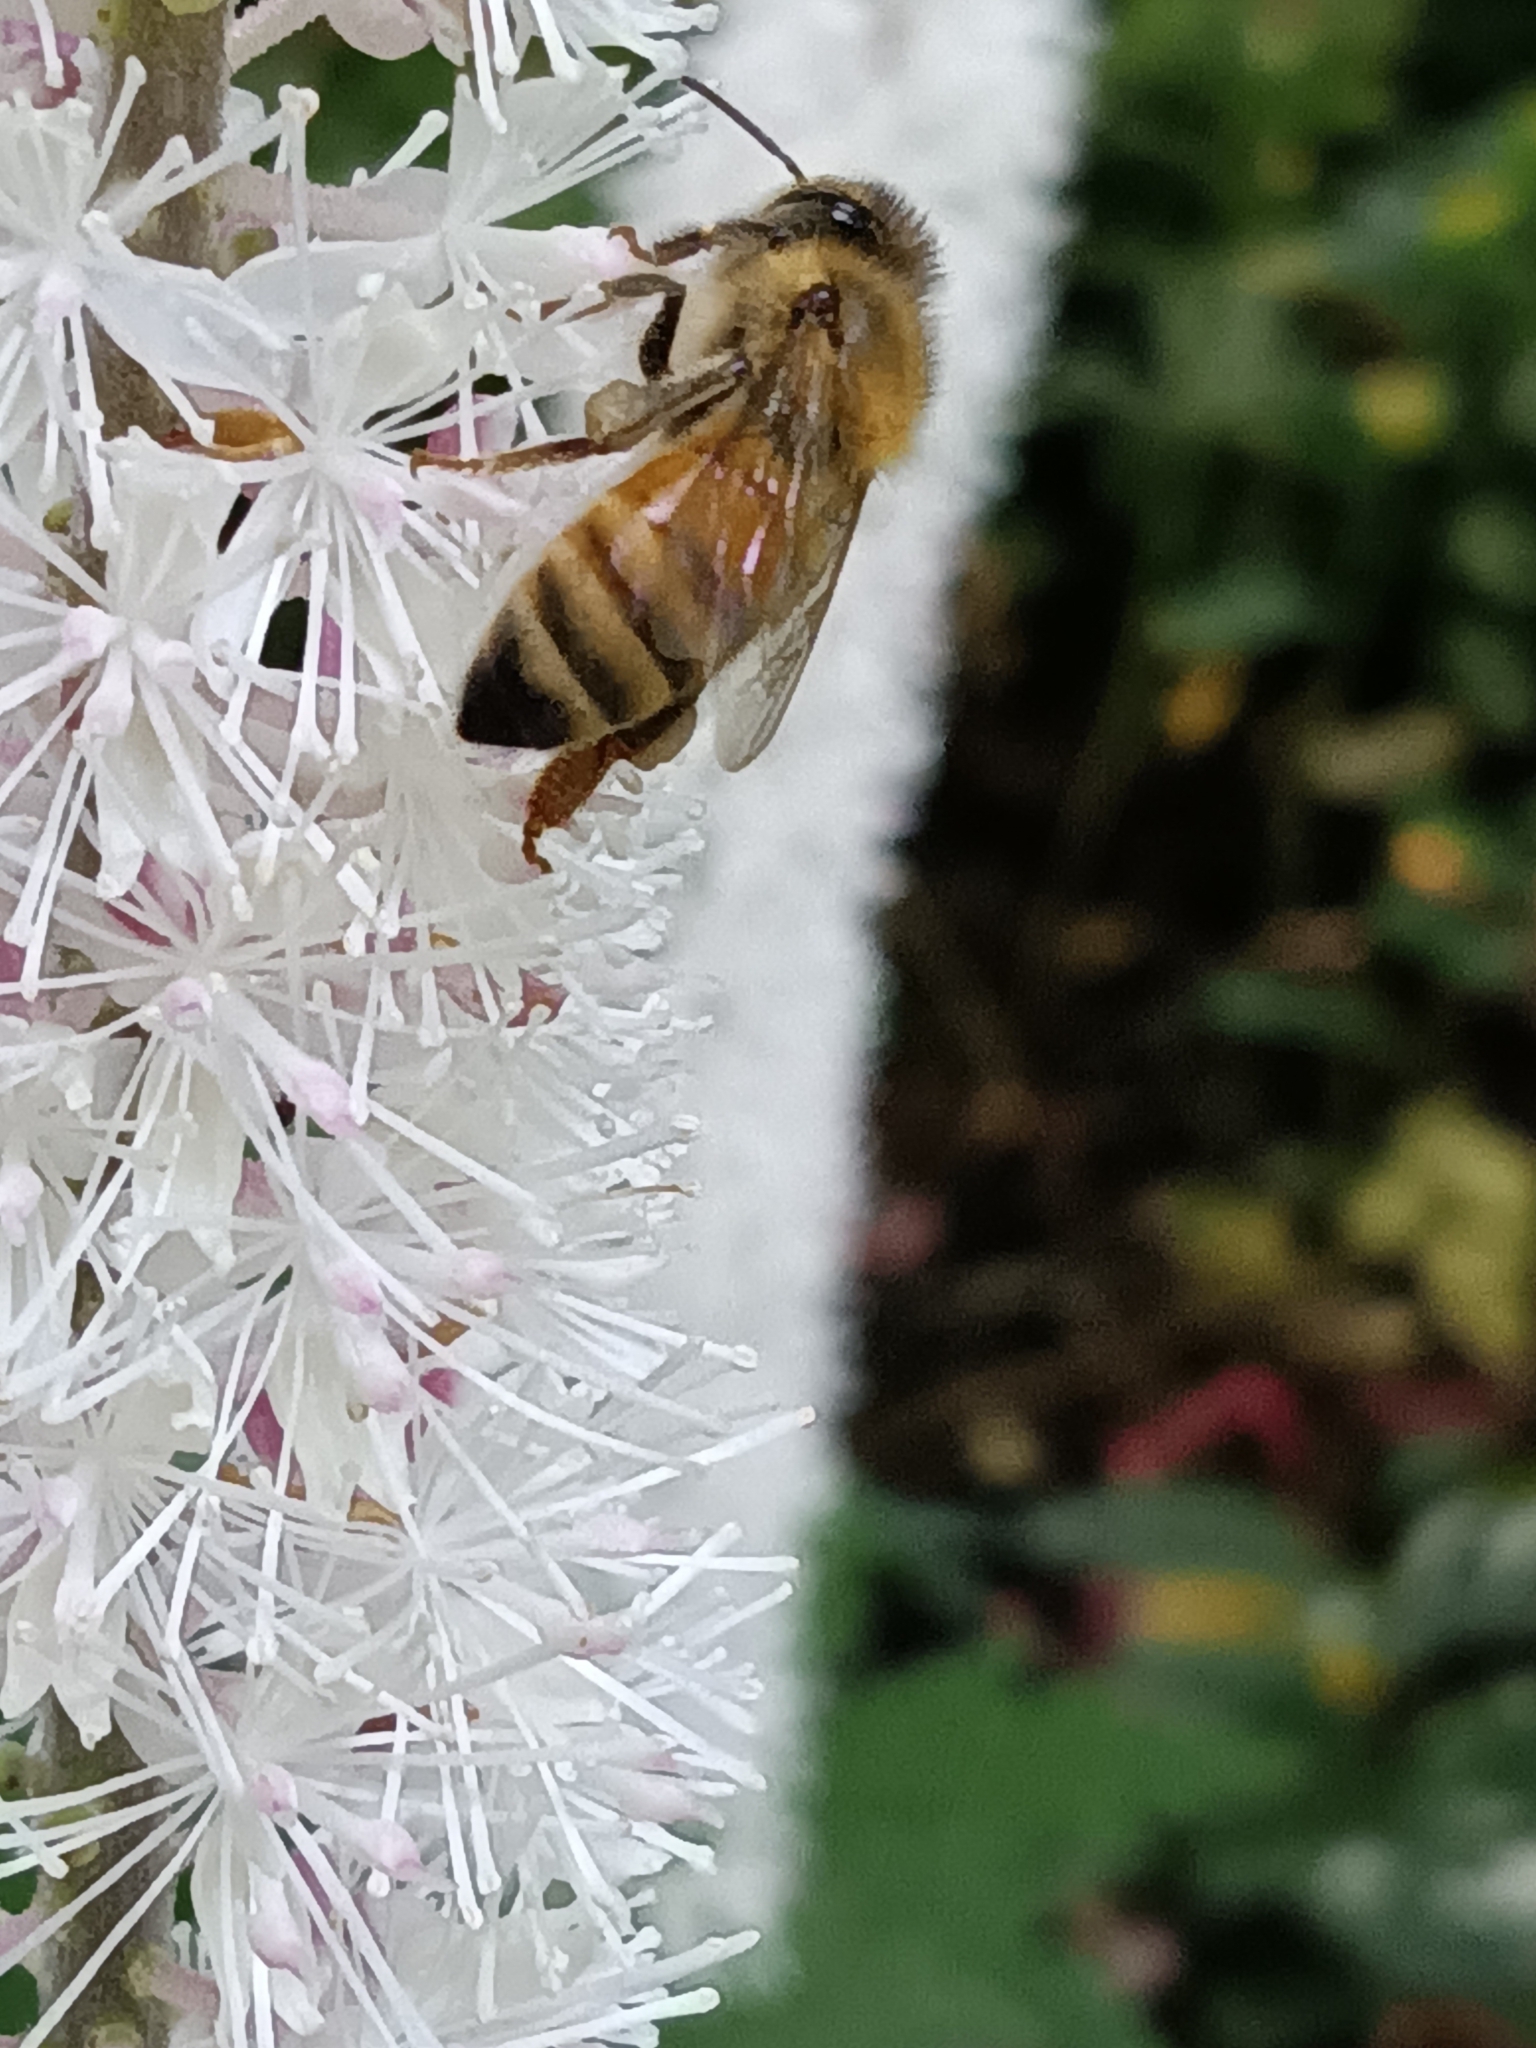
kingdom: Animalia
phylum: Arthropoda
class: Insecta
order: Hymenoptera
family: Apidae
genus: Apis
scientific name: Apis mellifera
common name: Honey bee
